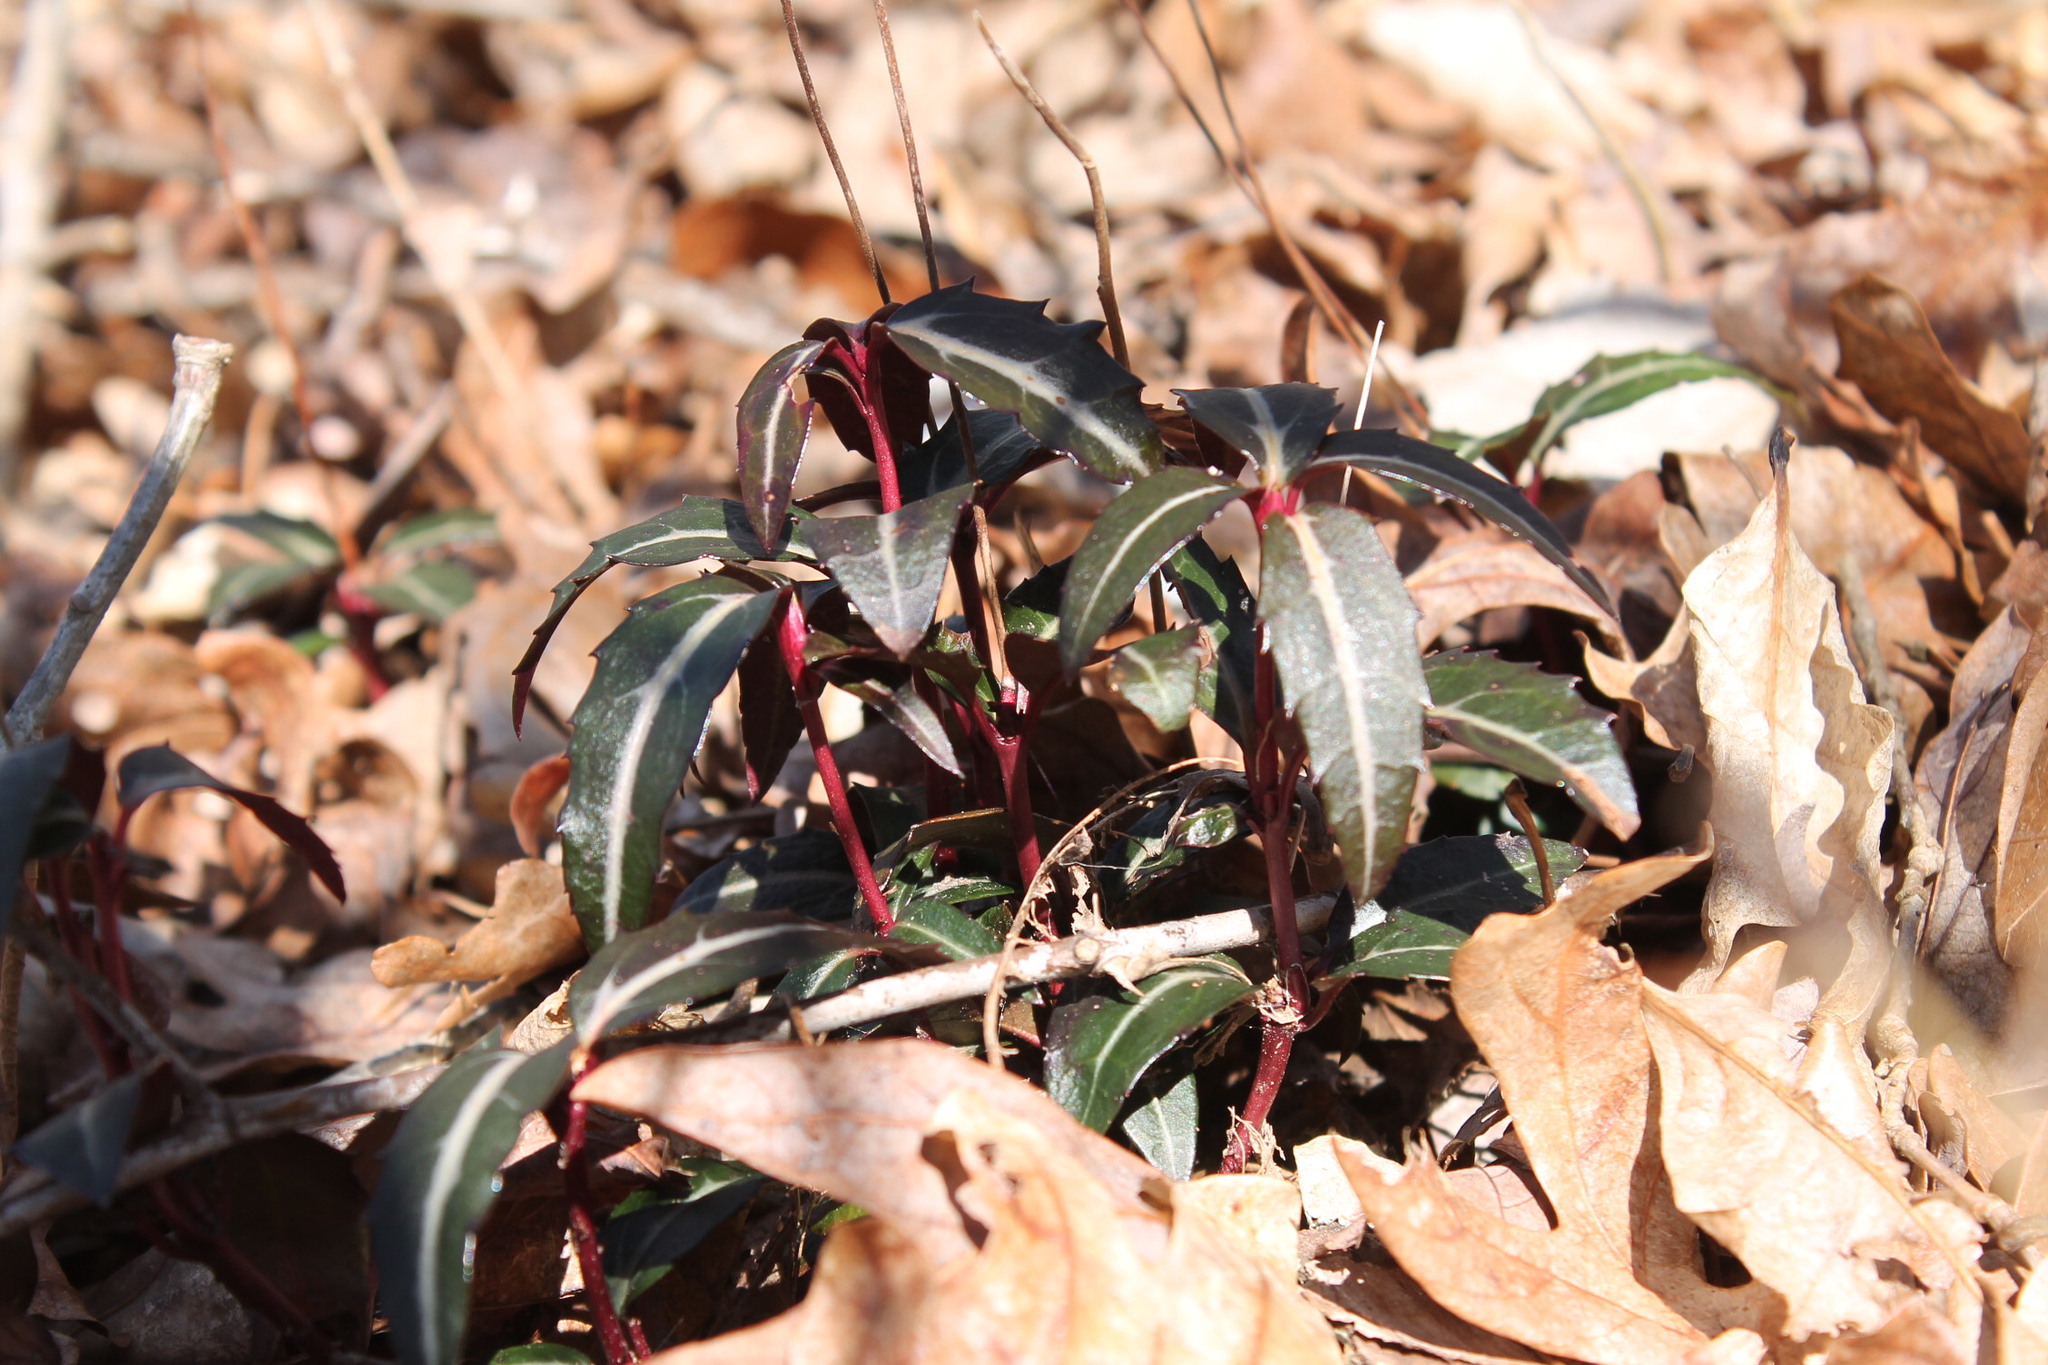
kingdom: Plantae
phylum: Tracheophyta
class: Magnoliopsida
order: Ericales
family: Ericaceae
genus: Chimaphila
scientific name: Chimaphila maculata
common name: Spotted pipsissewa
